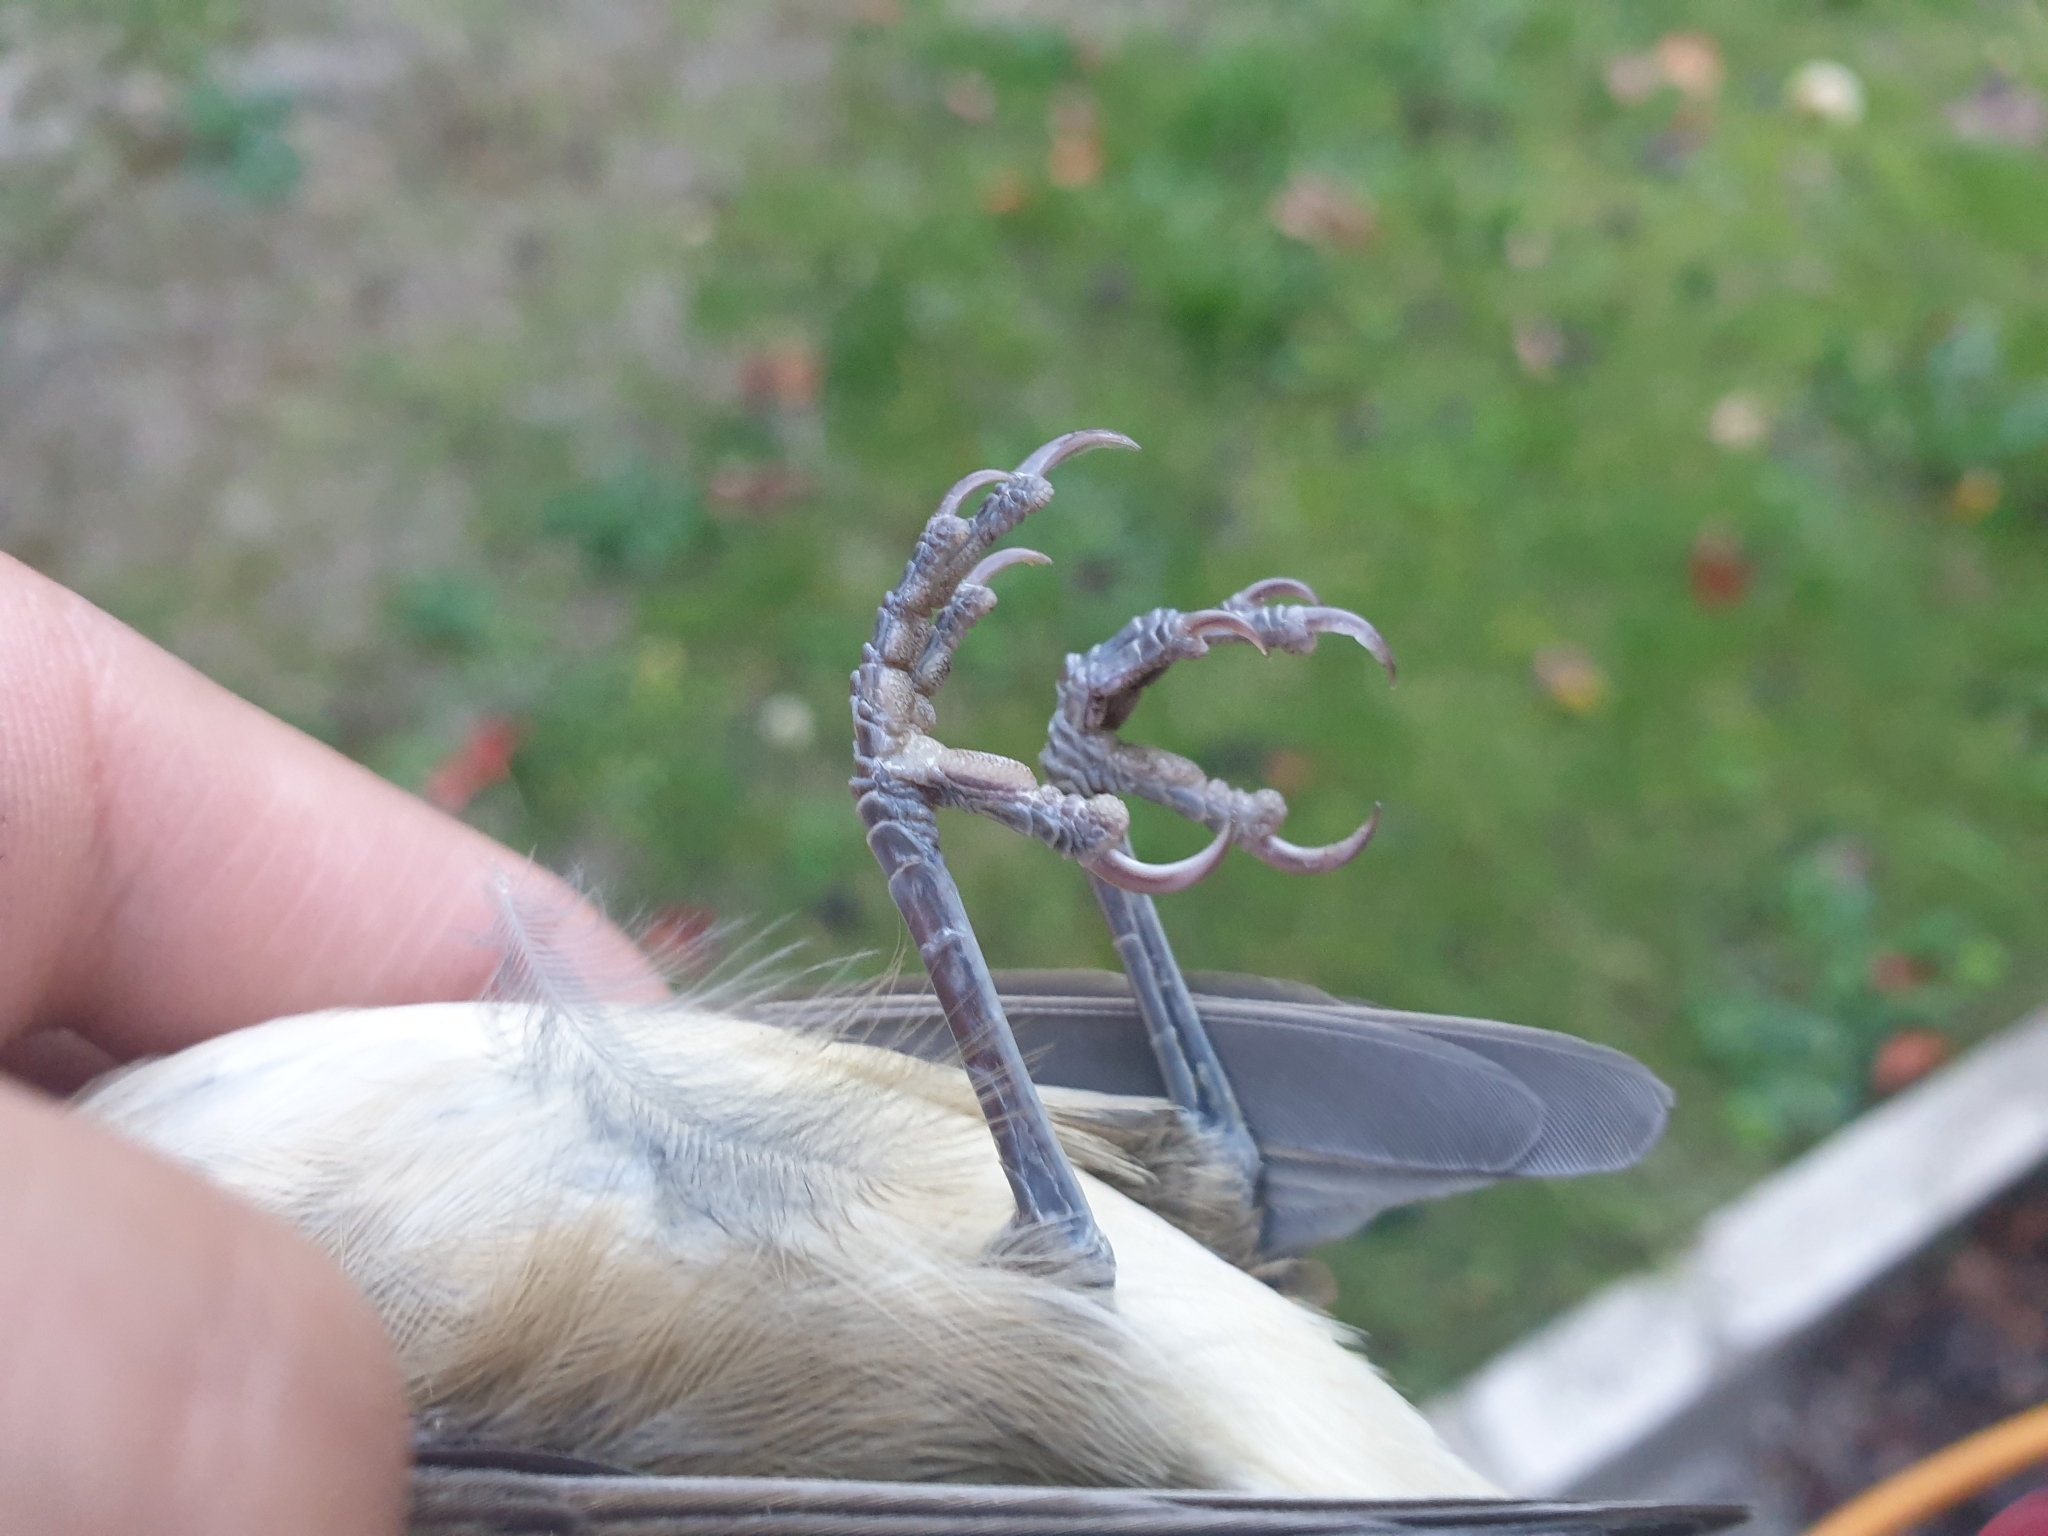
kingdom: Animalia
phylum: Chordata
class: Aves
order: Passeriformes
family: Sylviidae
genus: Sylvia
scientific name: Sylvia atricapilla
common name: Eurasian blackcap
